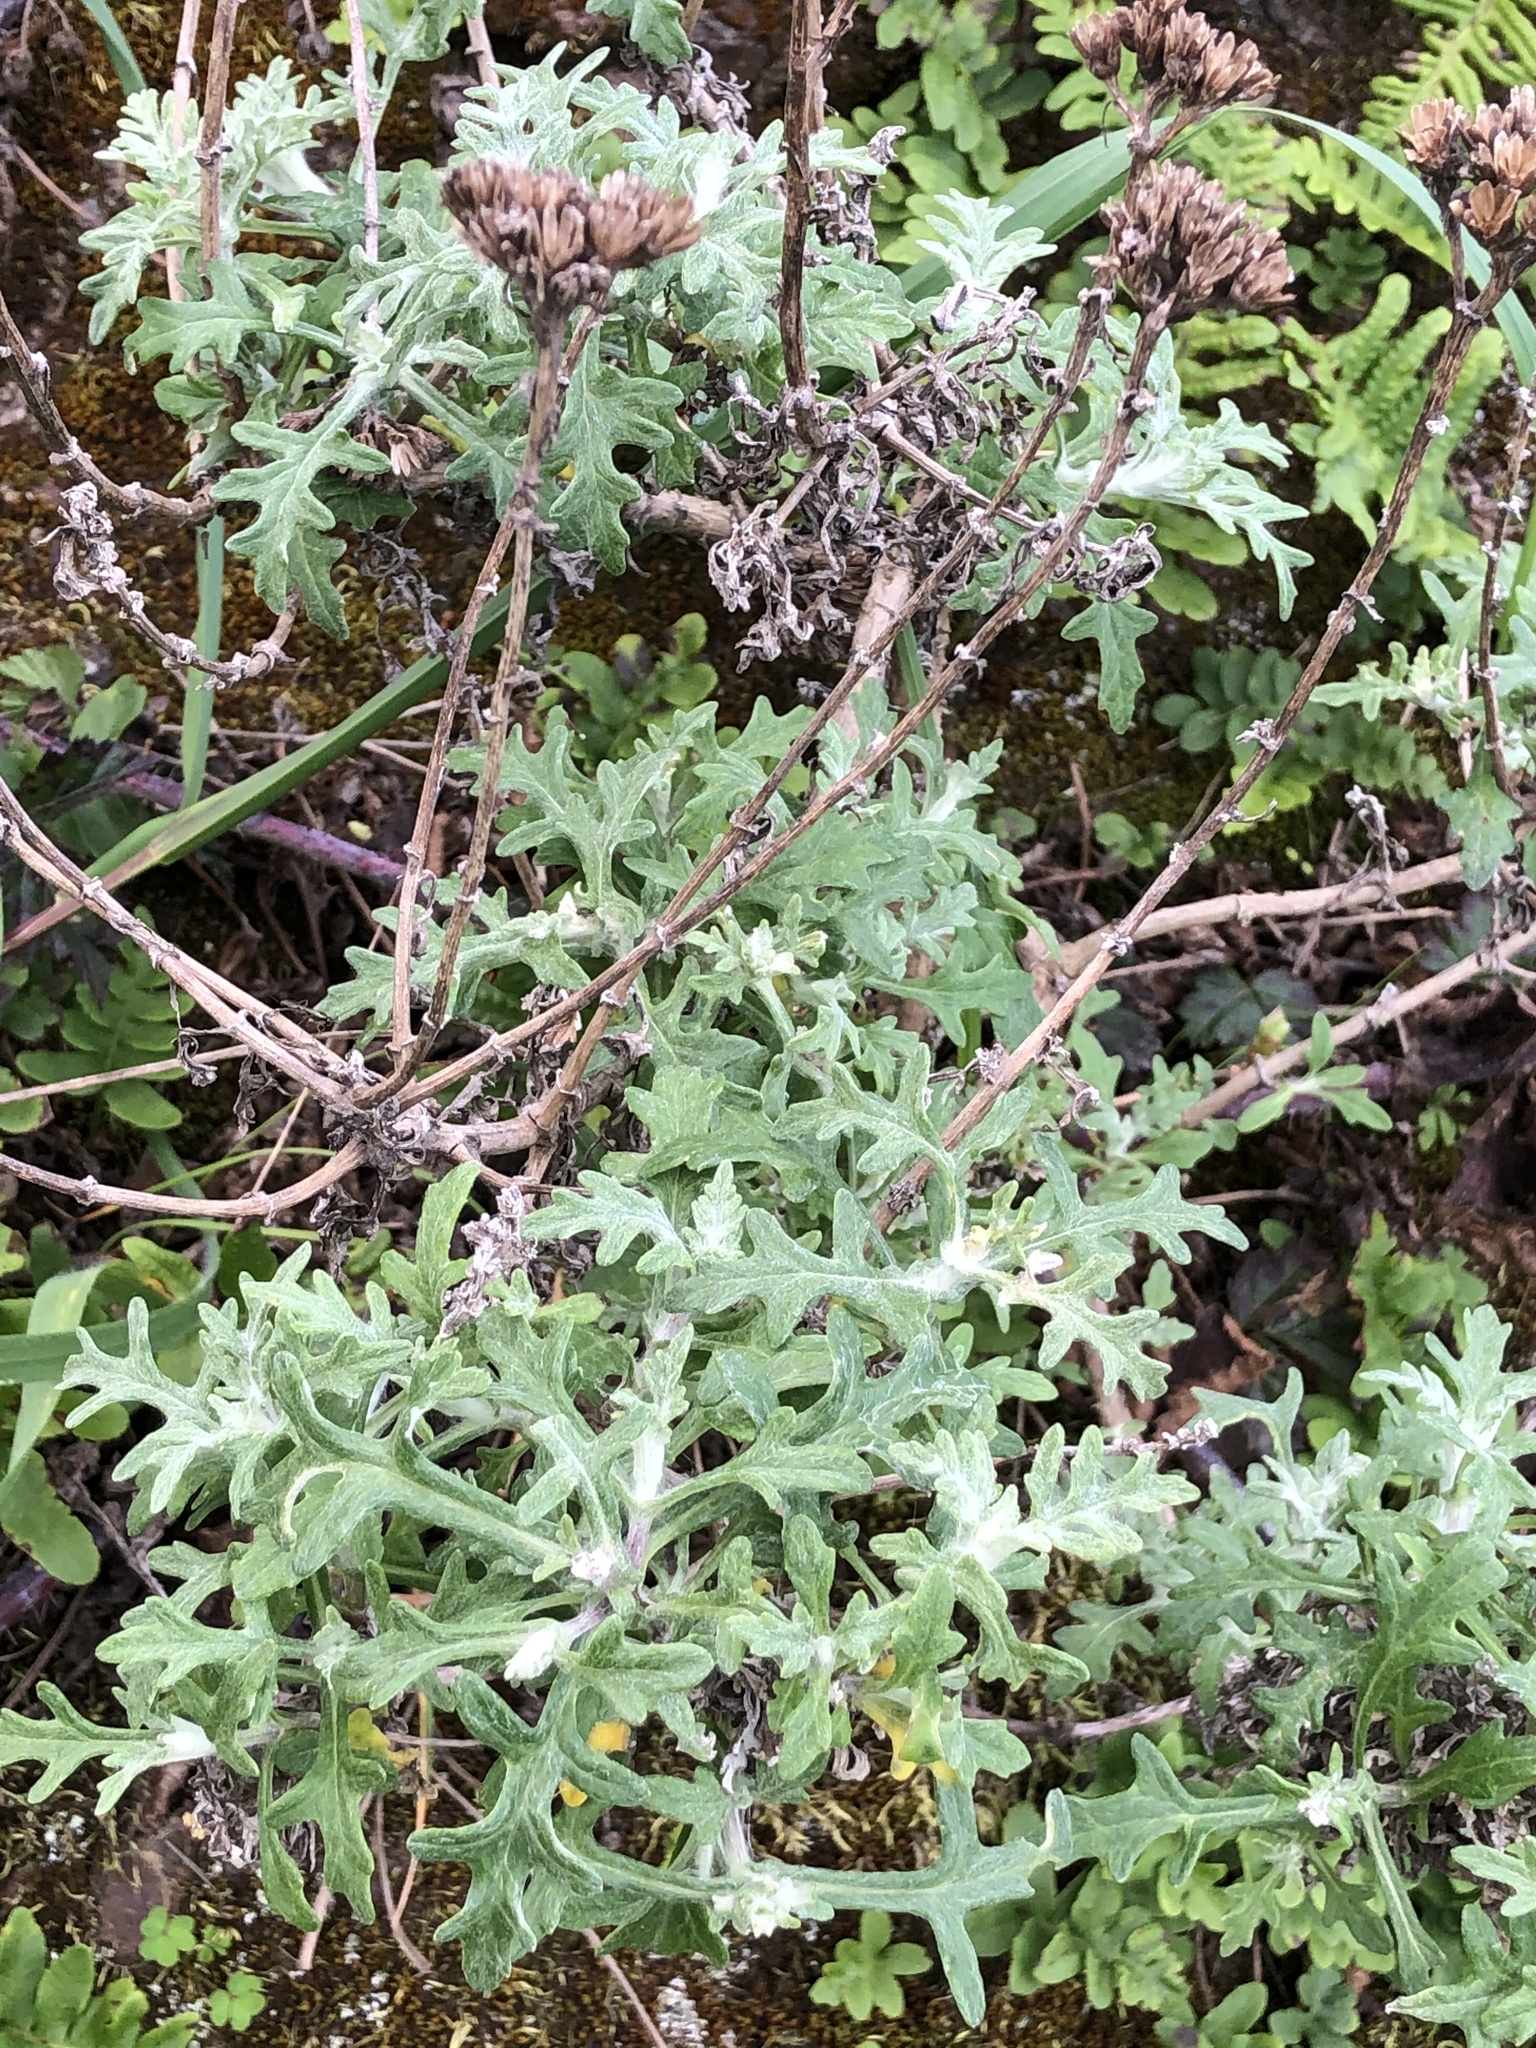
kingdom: Plantae
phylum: Tracheophyta
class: Magnoliopsida
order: Asterales
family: Asteraceae
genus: Eriophyllum
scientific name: Eriophyllum staechadifolium
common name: Lizardtail
